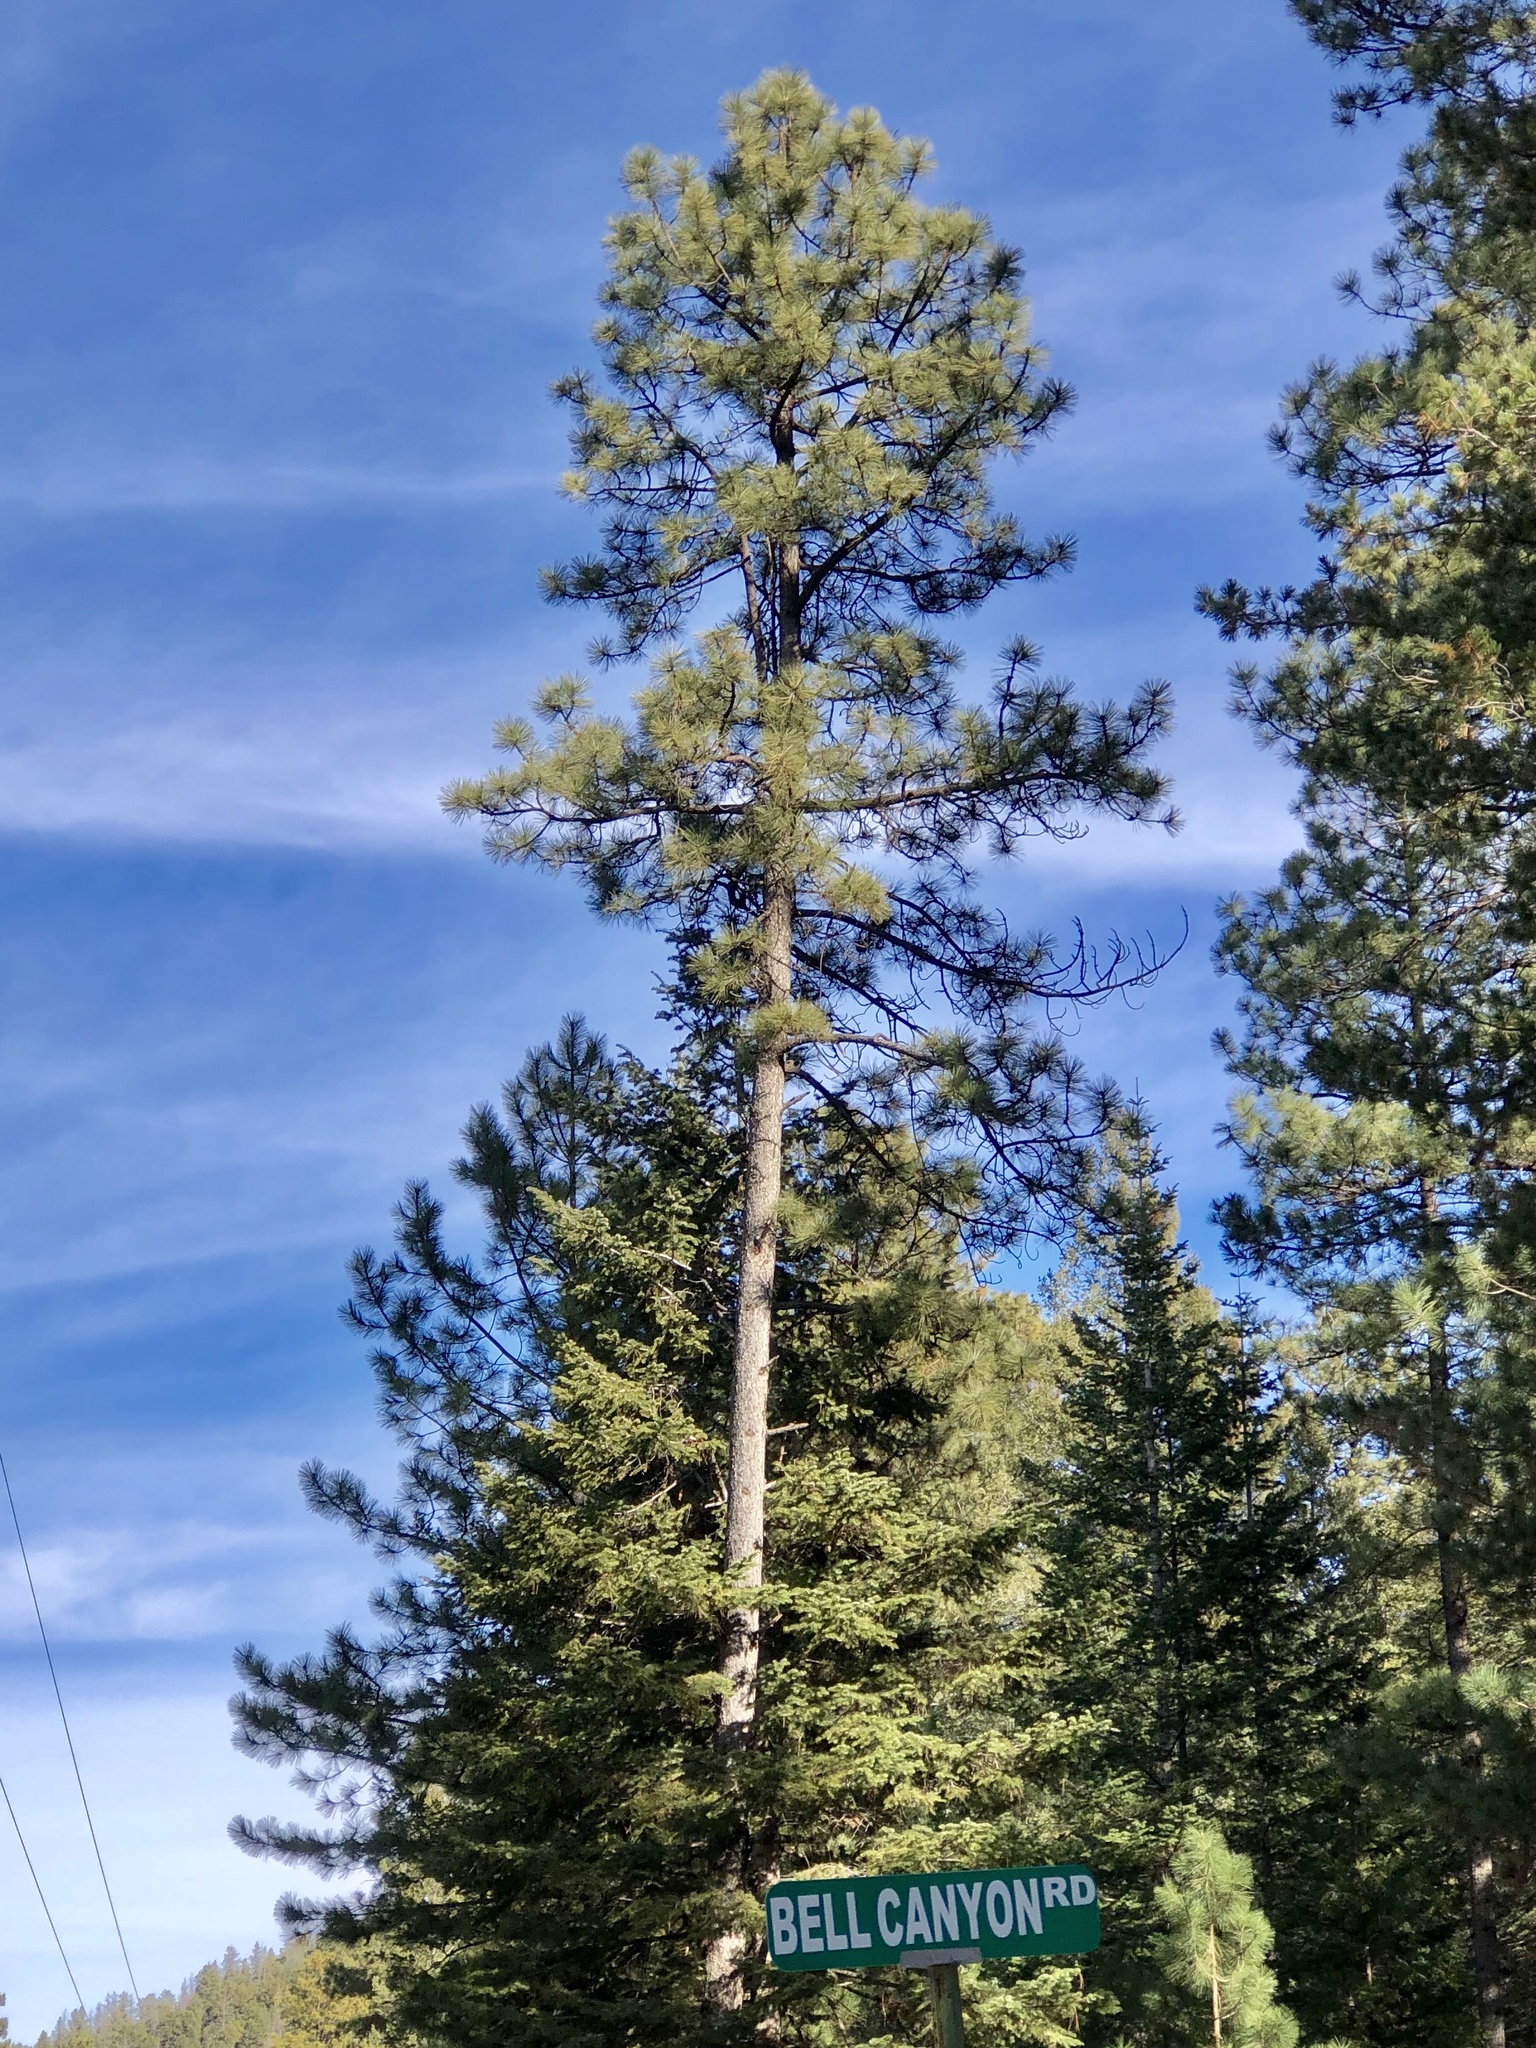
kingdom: Plantae
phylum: Tracheophyta
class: Pinopsida
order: Pinales
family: Pinaceae
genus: Pinus
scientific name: Pinus ponderosa
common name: Western yellow-pine
